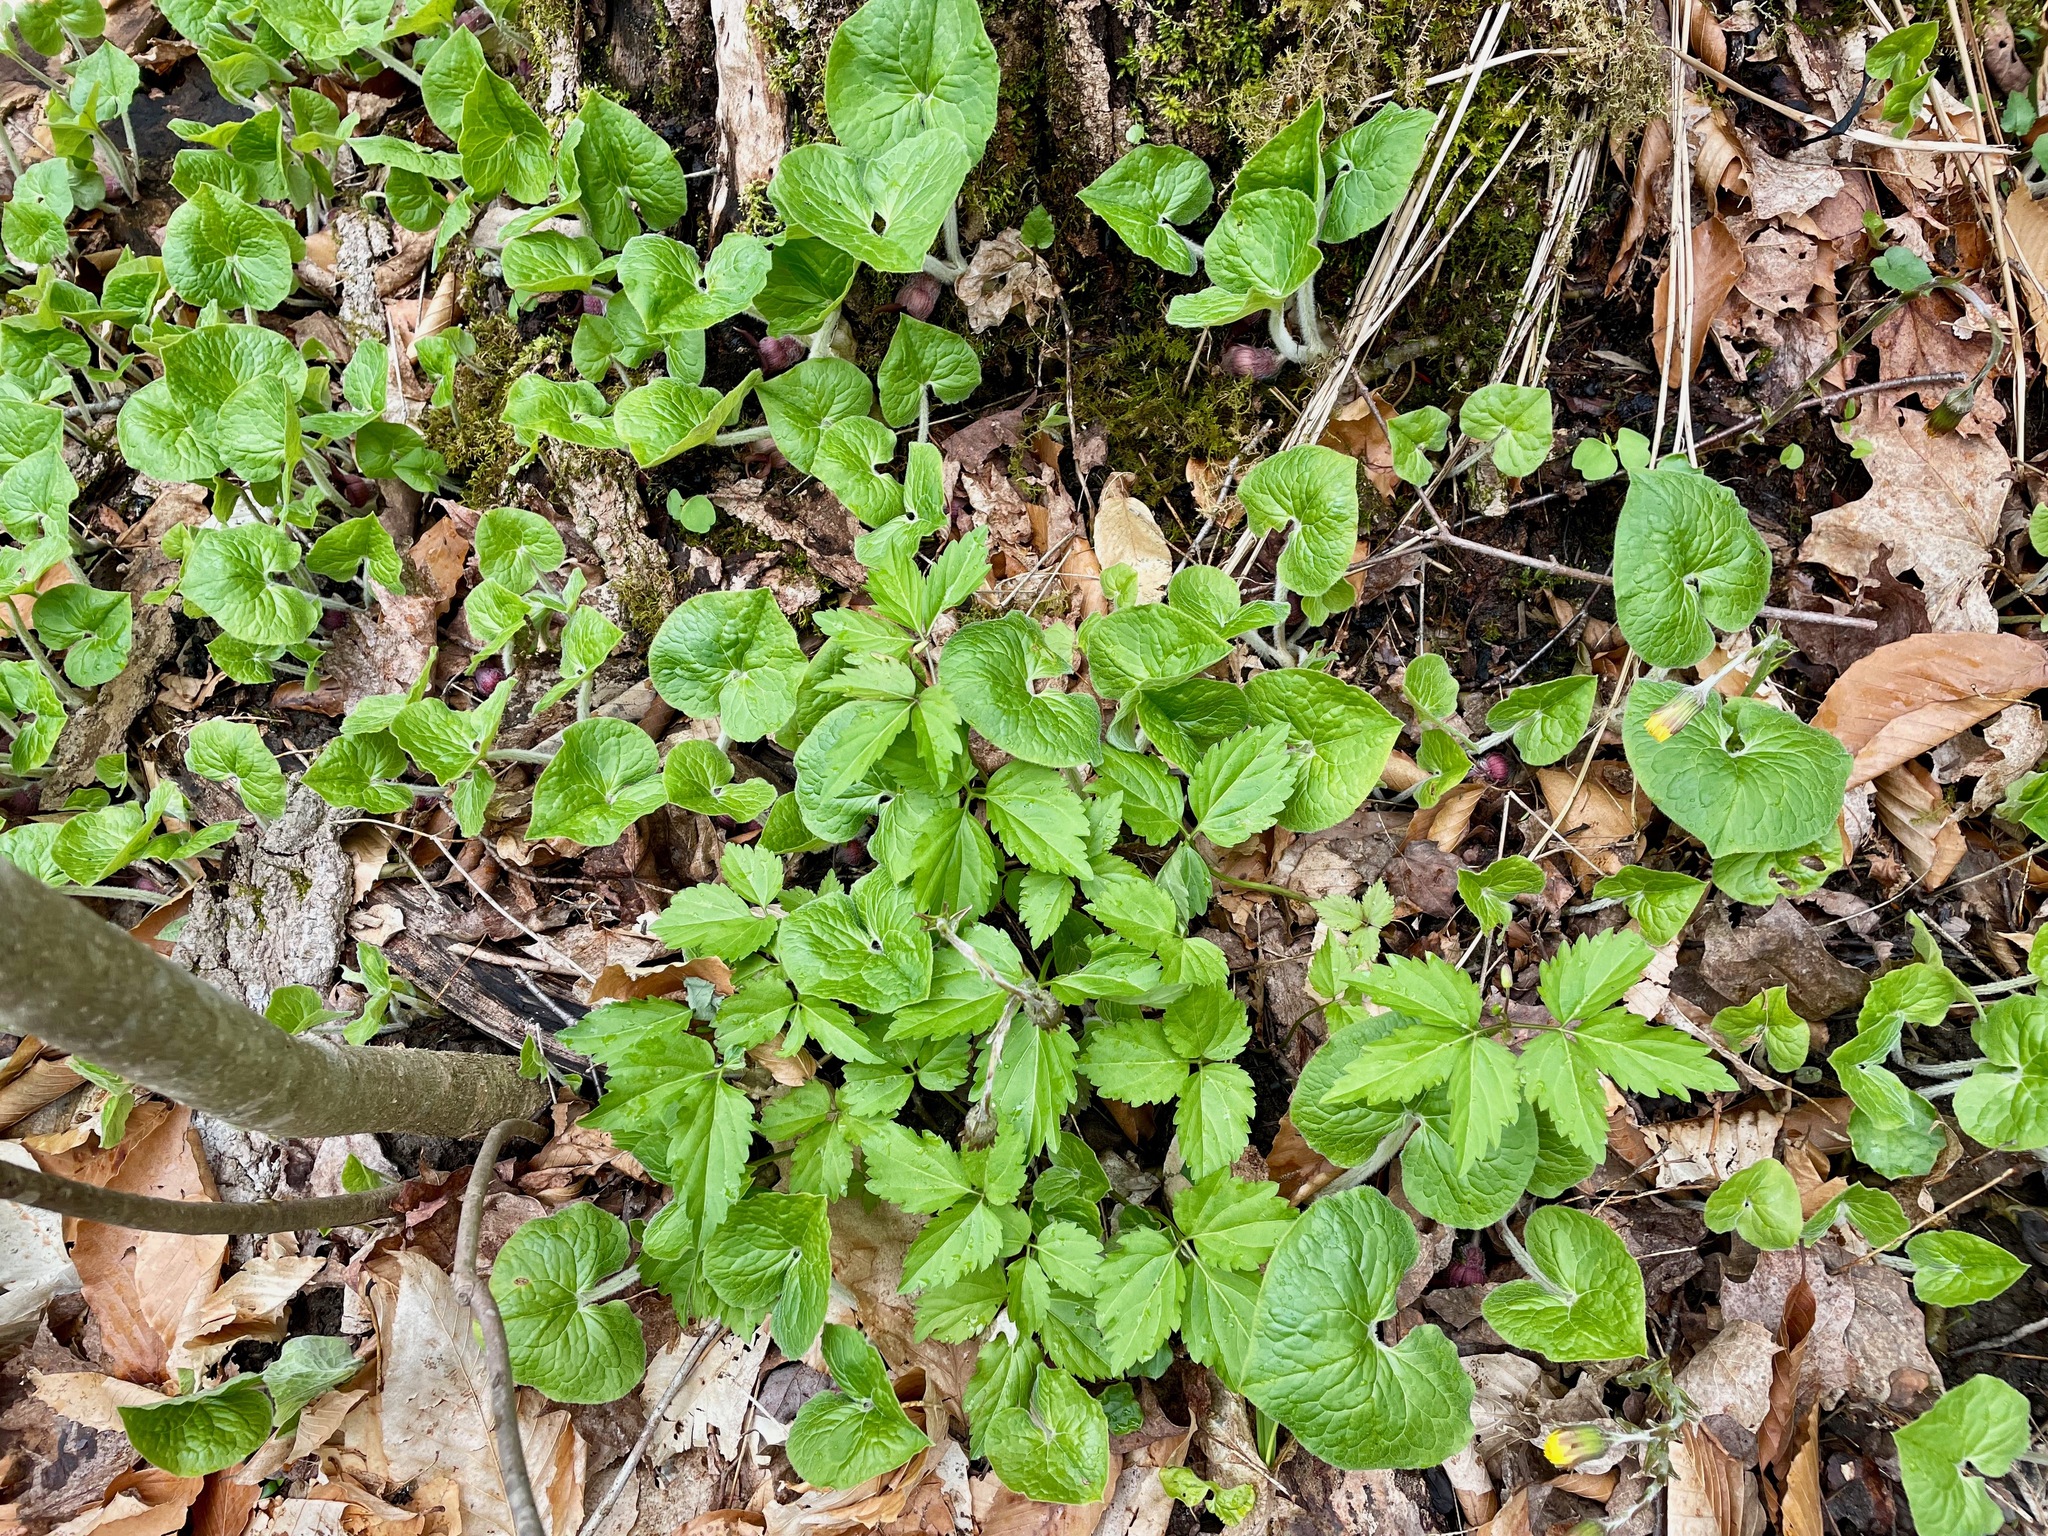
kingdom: Plantae
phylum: Tracheophyta
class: Magnoliopsida
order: Piperales
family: Aristolochiaceae
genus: Asarum
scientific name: Asarum canadense
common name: Wild ginger
